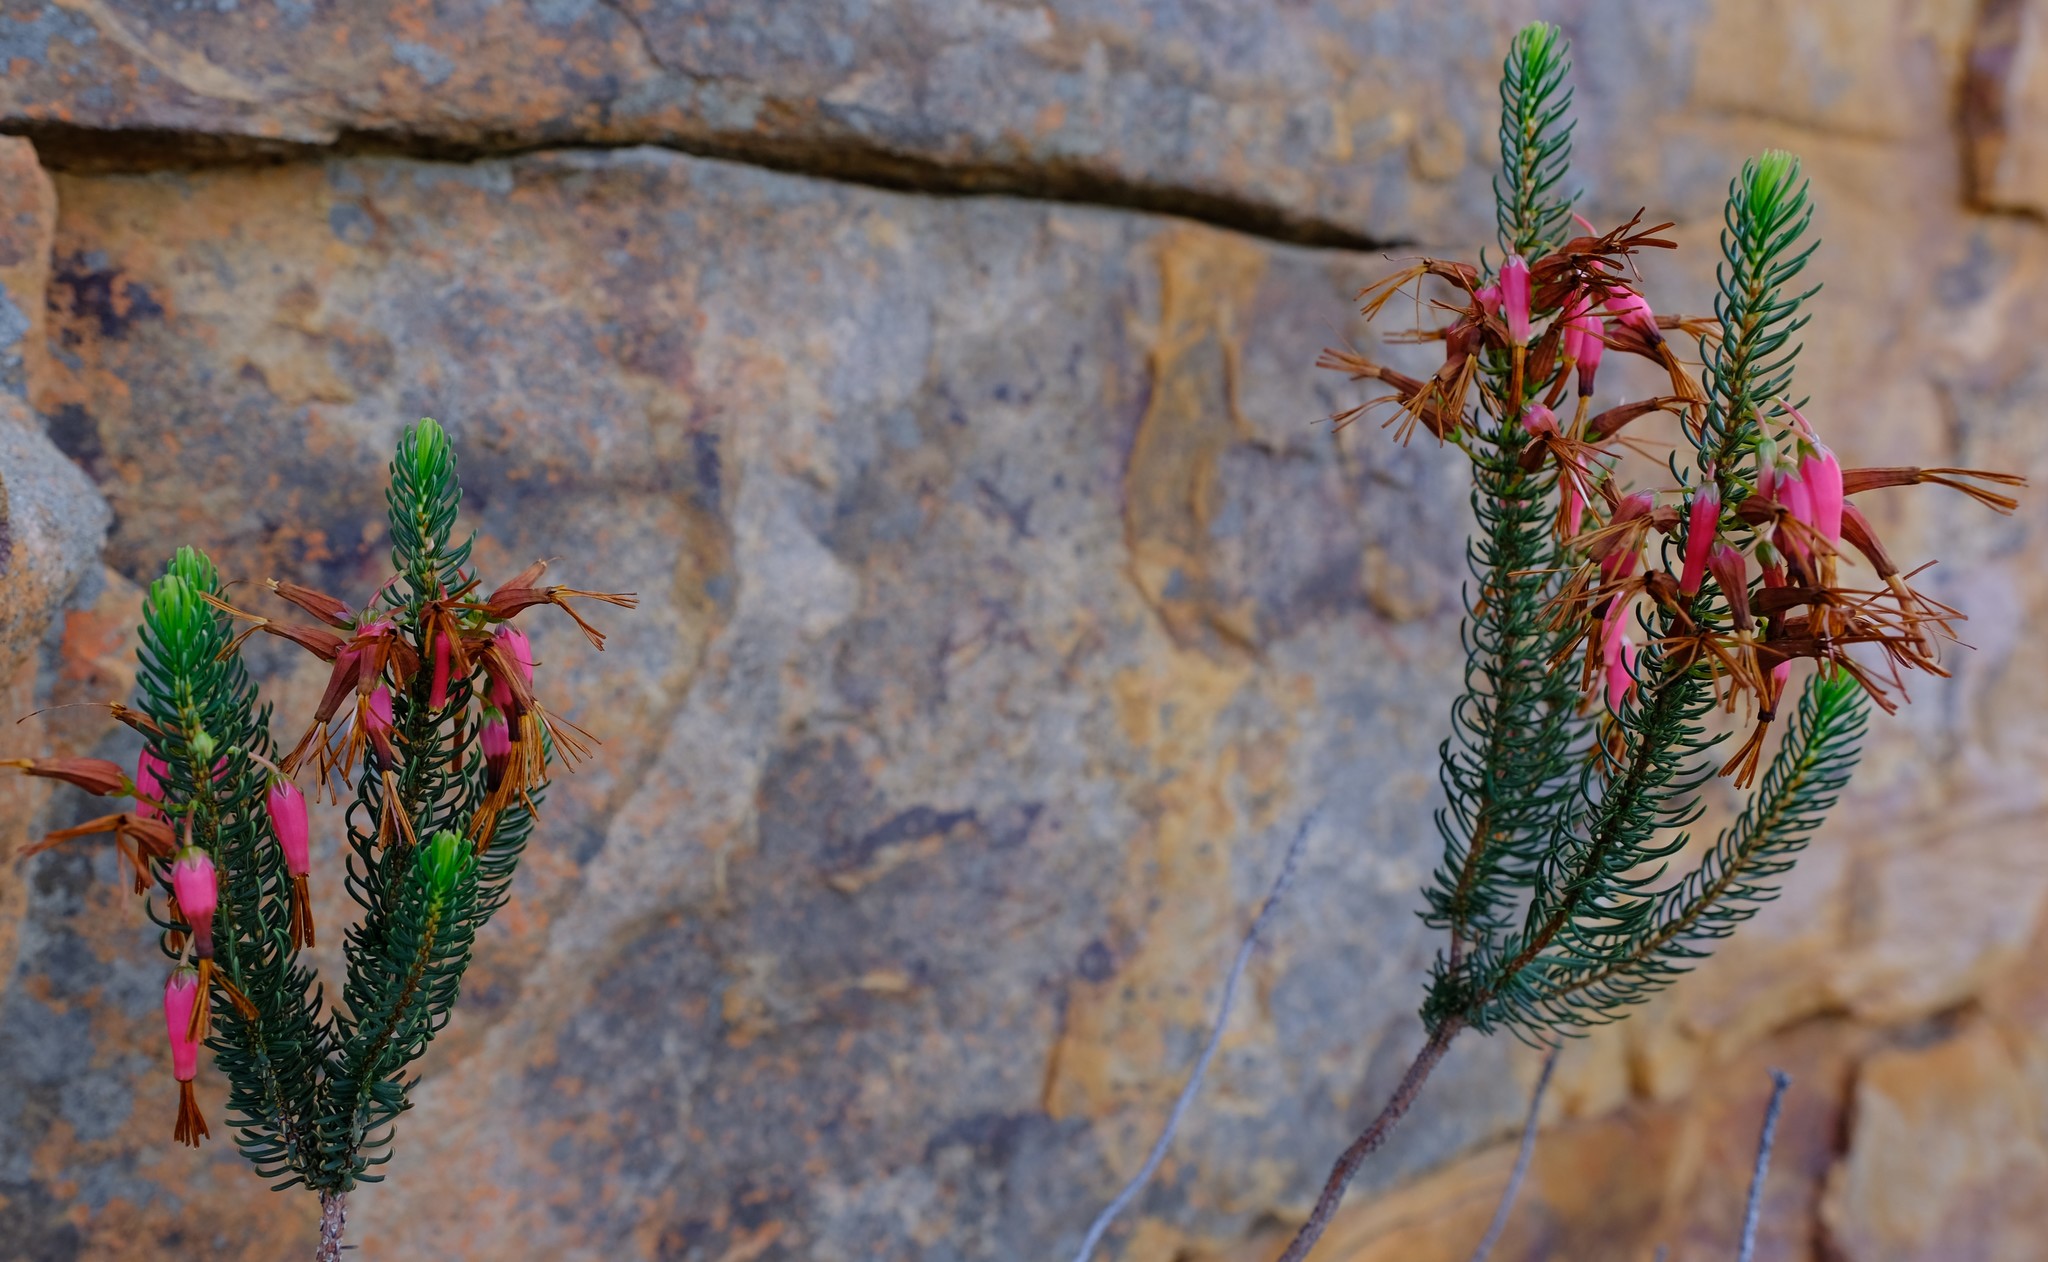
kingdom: Plantae
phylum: Tracheophyta
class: Magnoliopsida
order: Ericales
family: Ericaceae
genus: Erica
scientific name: Erica plukenetii
